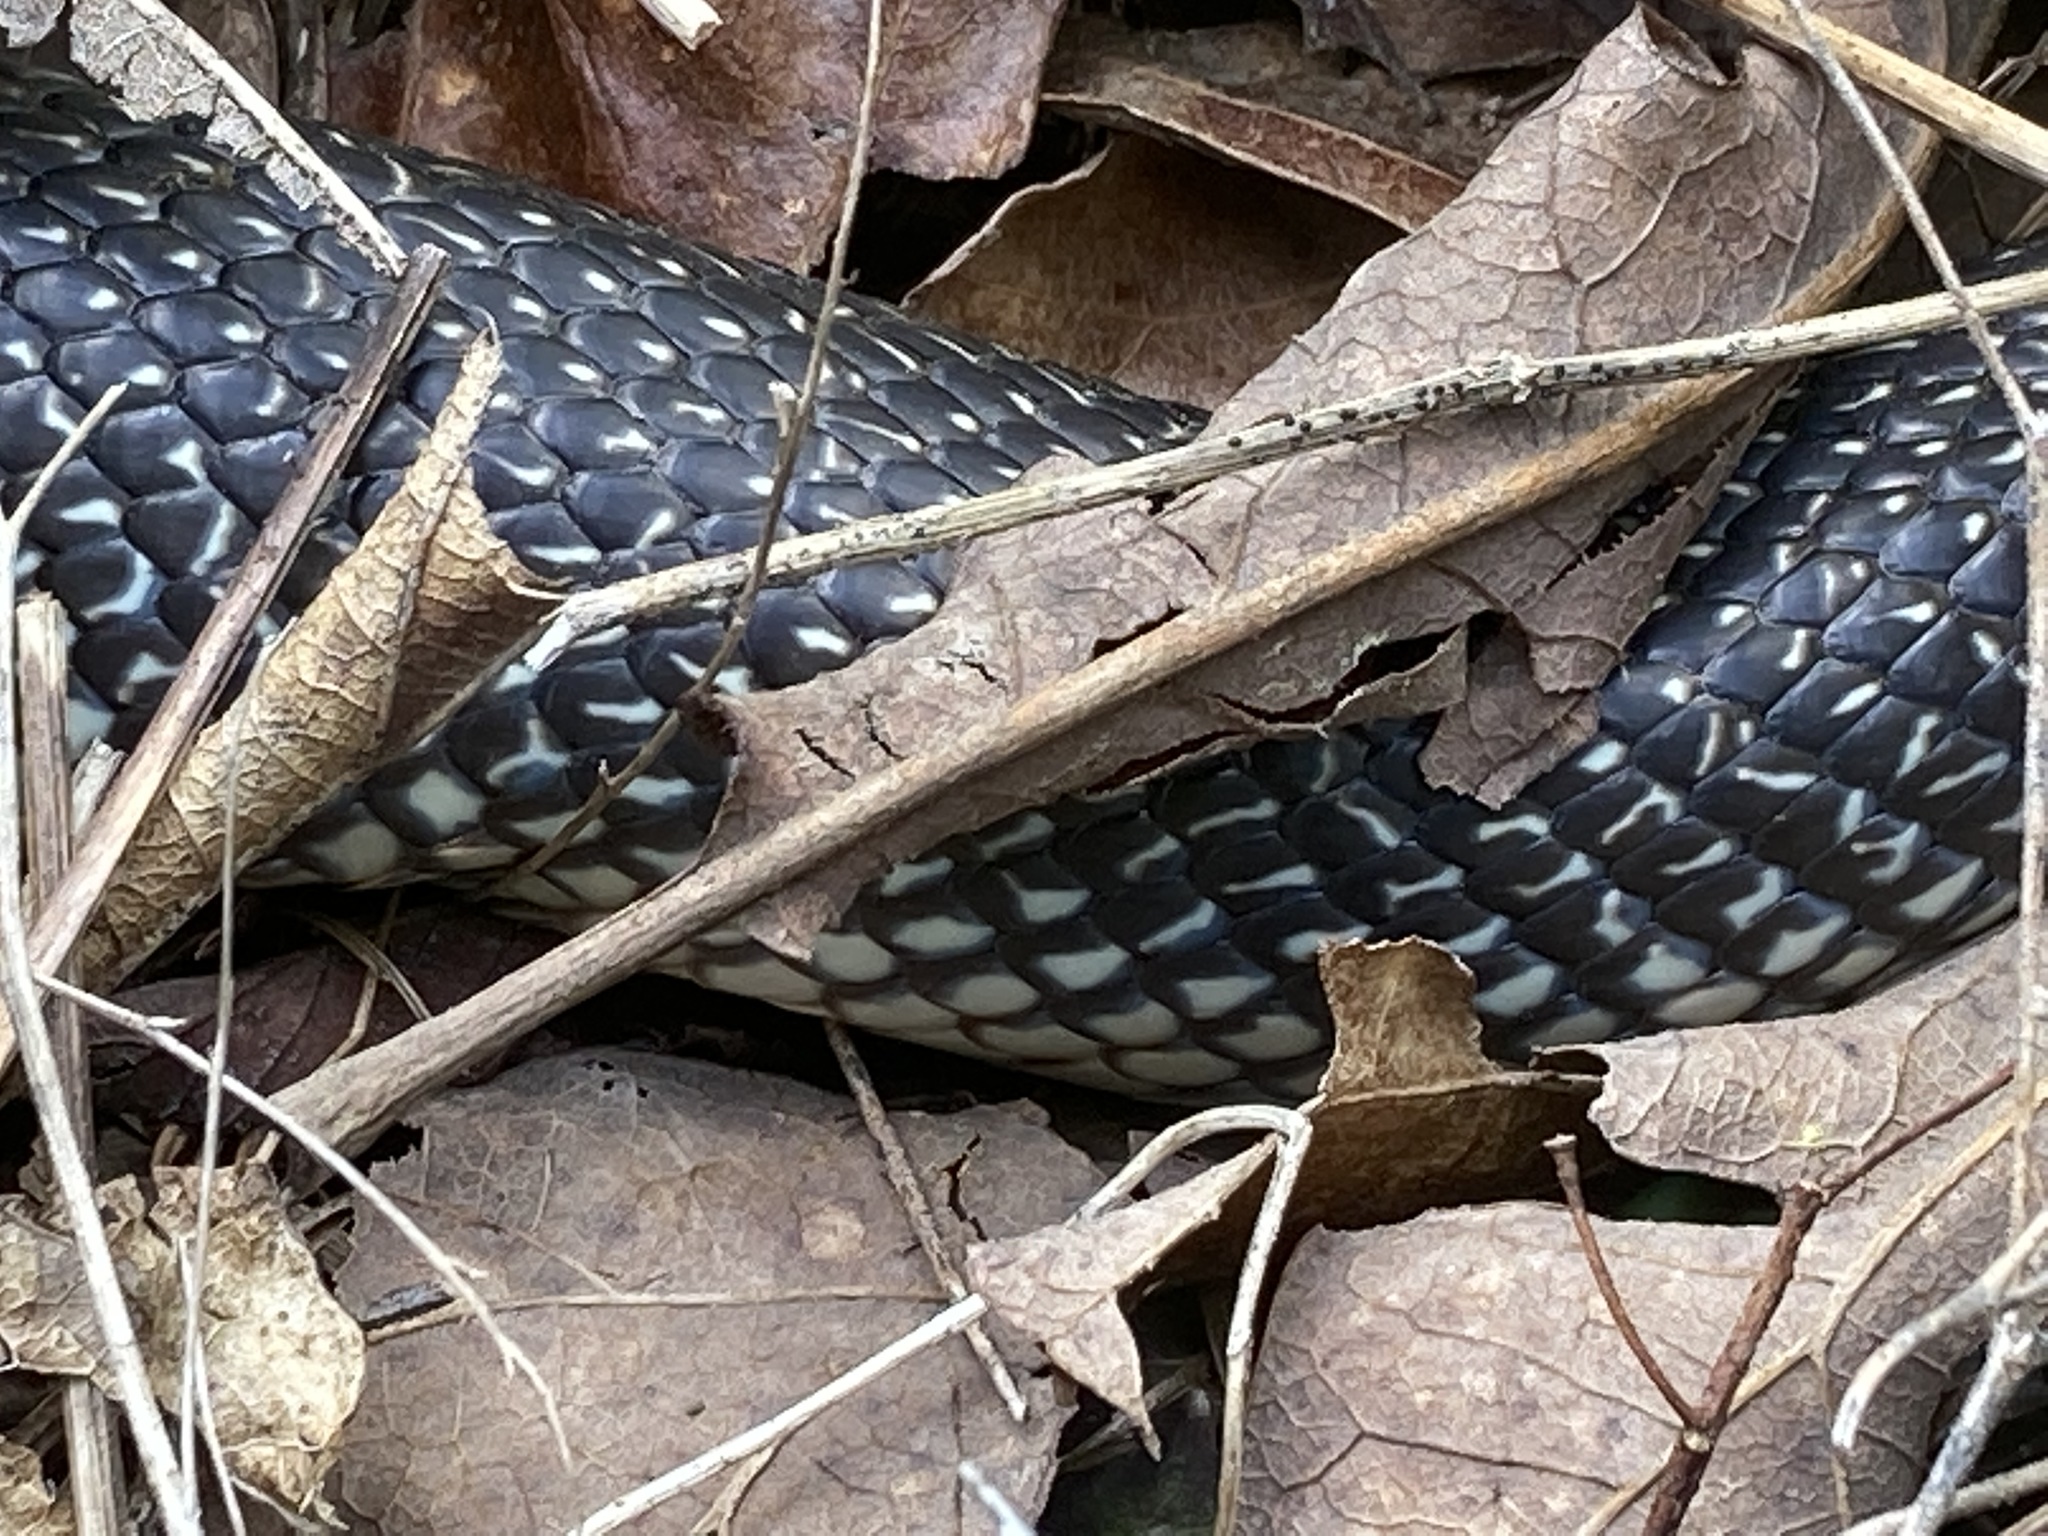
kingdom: Animalia
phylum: Chordata
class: Squamata
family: Colubridae
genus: Lampropeltis
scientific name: Lampropeltis holbrooki
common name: Speckled kingsnake
